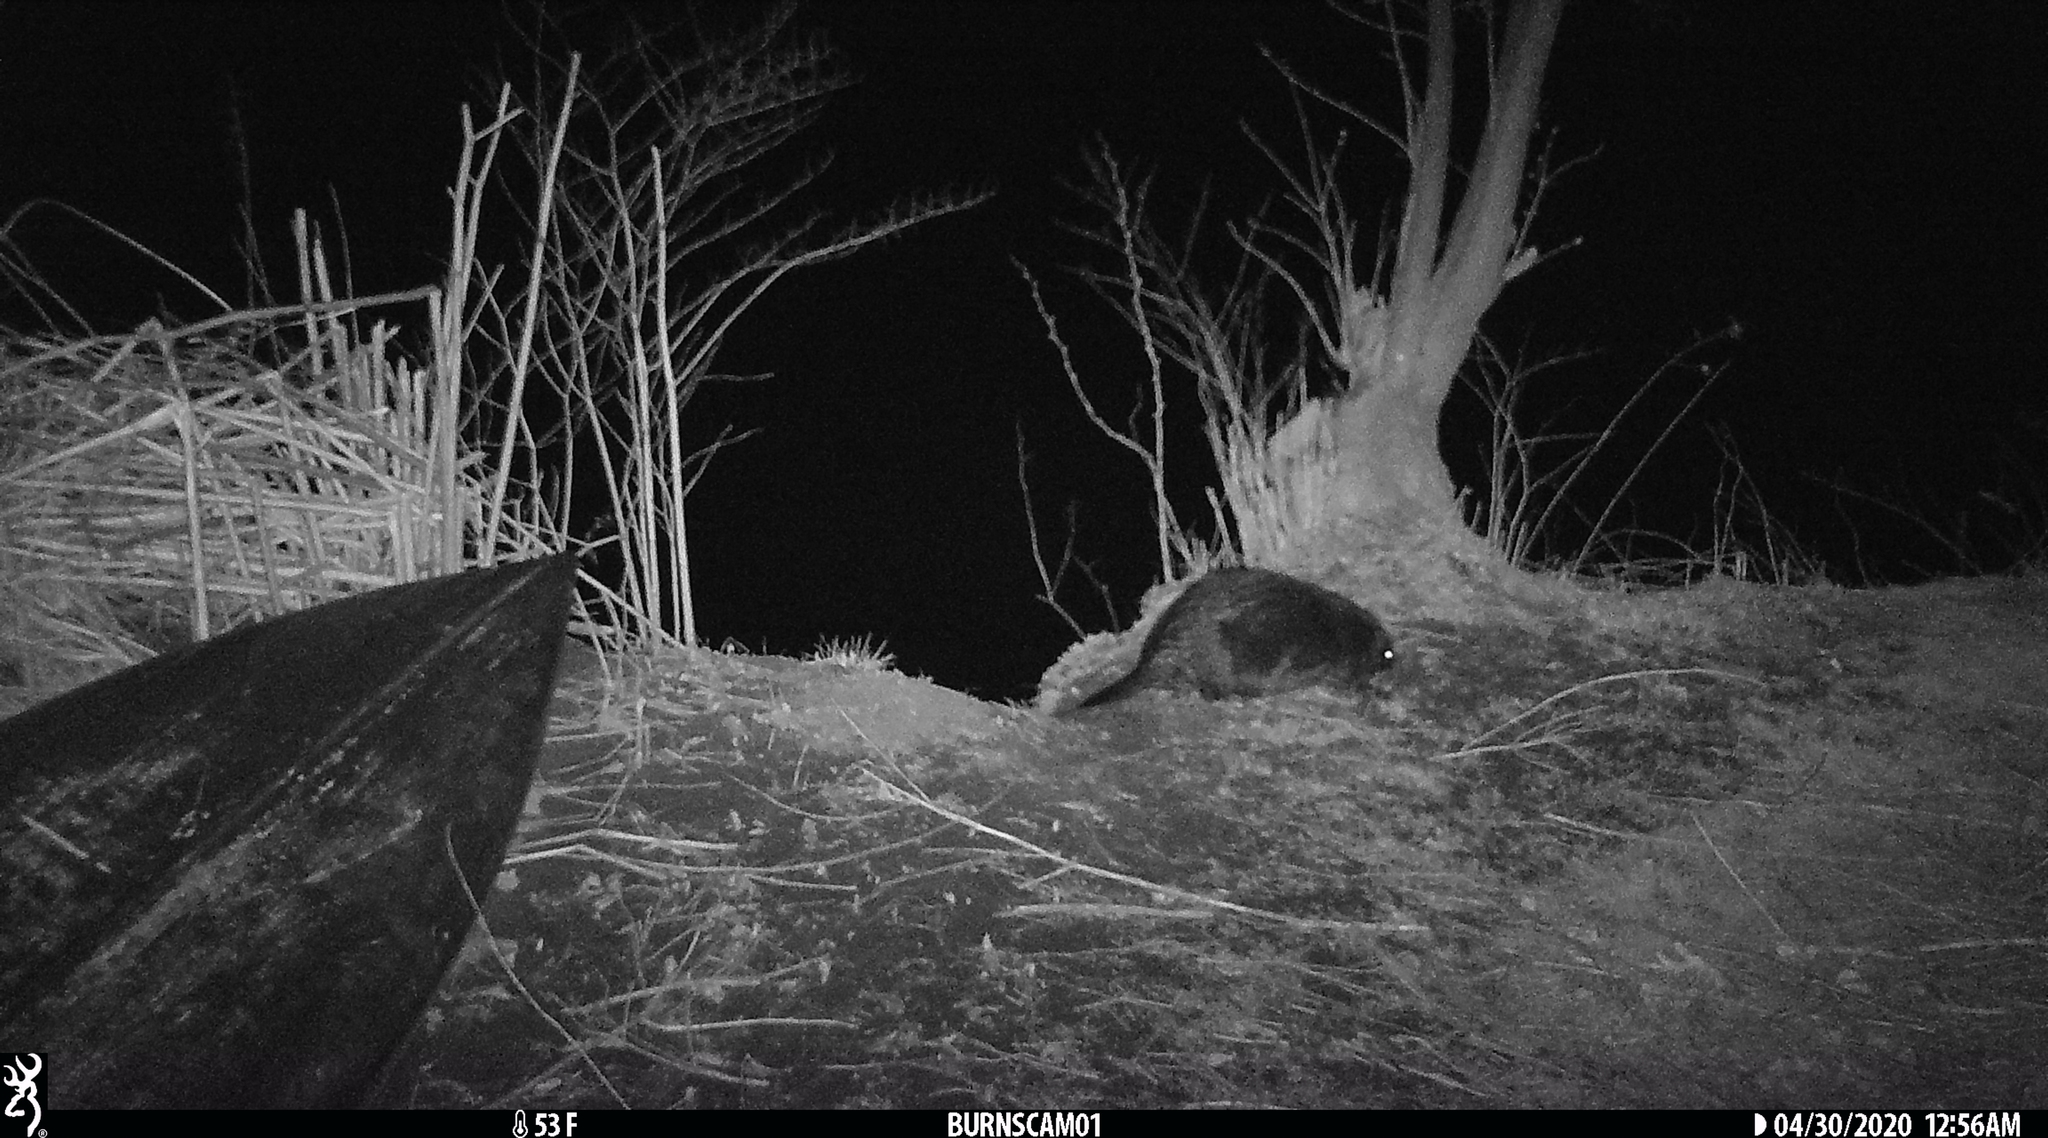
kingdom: Animalia
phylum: Chordata
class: Mammalia
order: Rodentia
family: Castoridae
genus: Castor
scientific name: Castor canadensis
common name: American beaver
